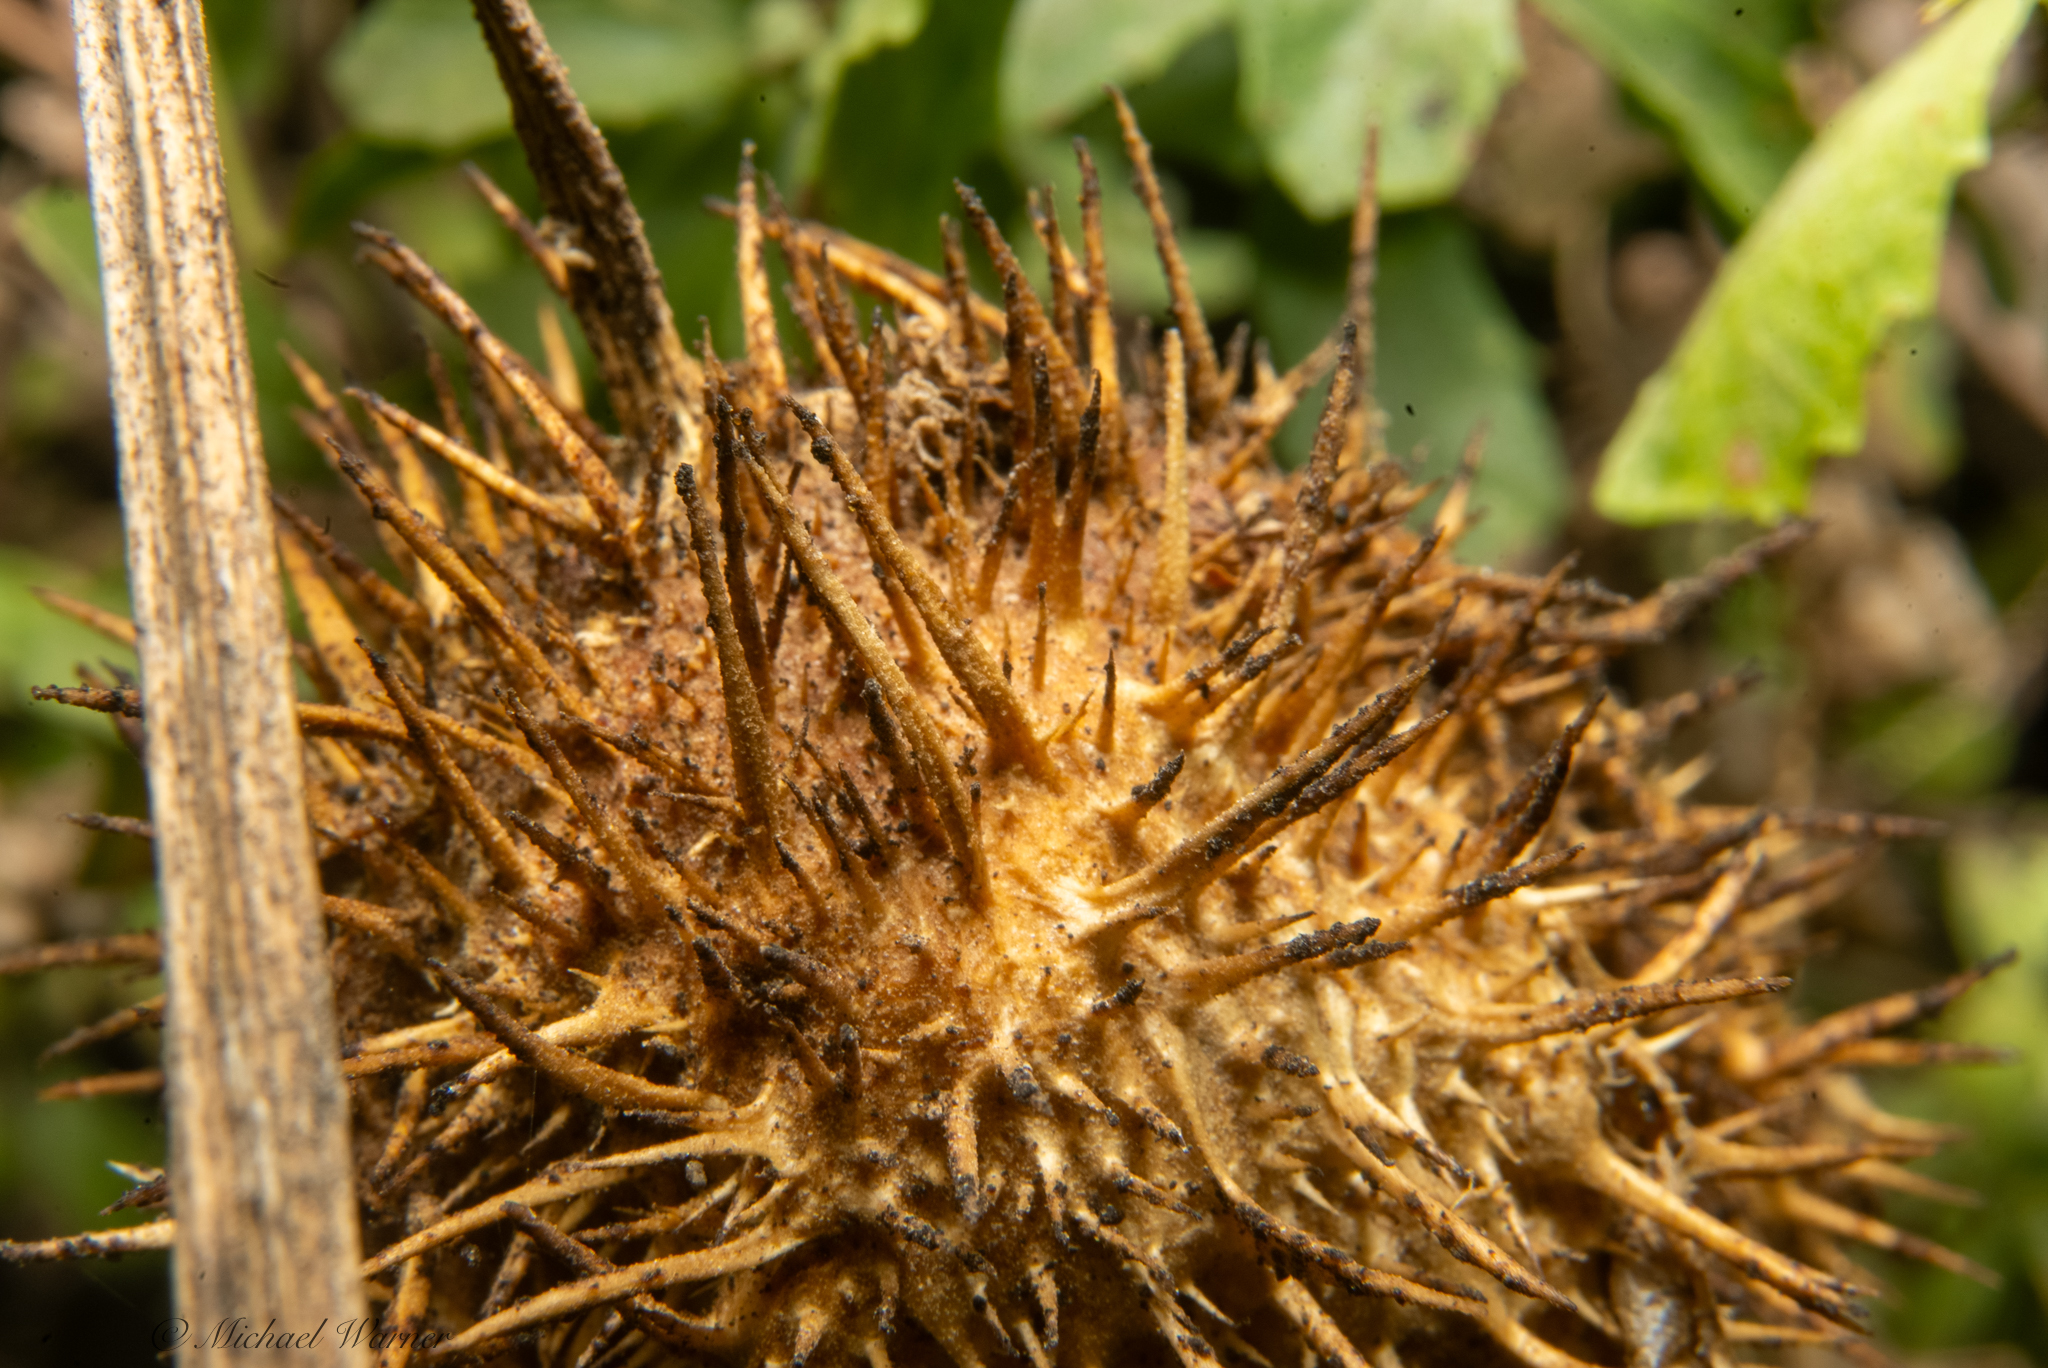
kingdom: Plantae
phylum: Tracheophyta
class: Magnoliopsida
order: Cucurbitales
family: Cucurbitaceae
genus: Marah
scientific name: Marah fabacea
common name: California manroot
